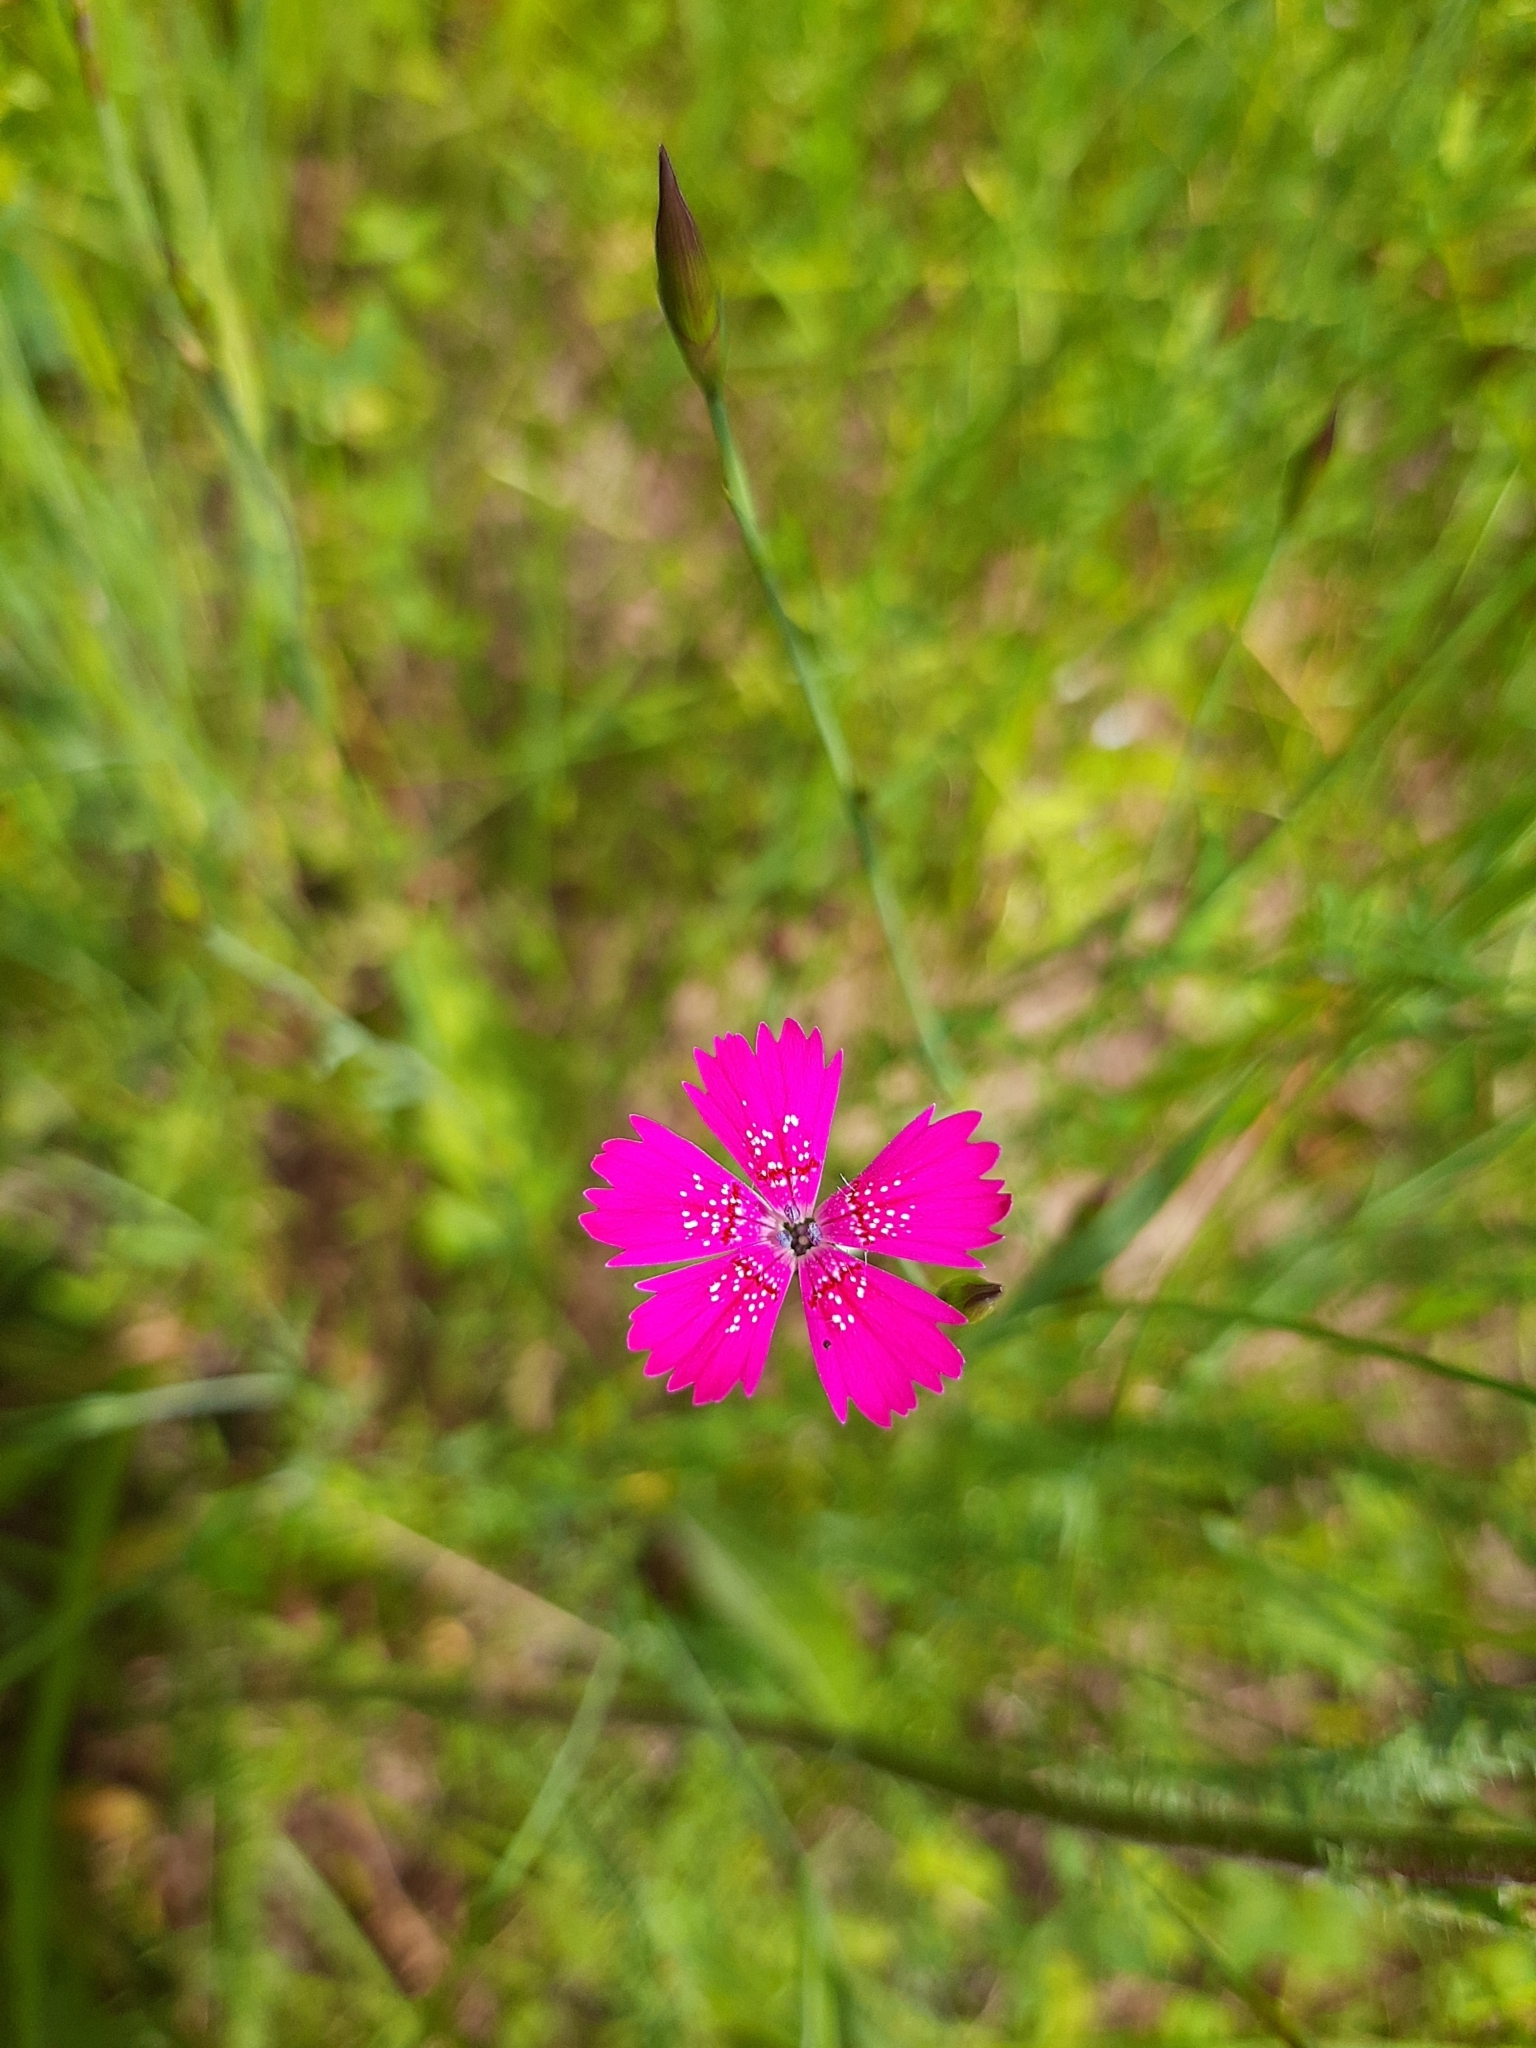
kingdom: Plantae
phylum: Tracheophyta
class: Magnoliopsida
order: Caryophyllales
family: Caryophyllaceae
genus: Dianthus
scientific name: Dianthus deltoides
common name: Maiden pink
